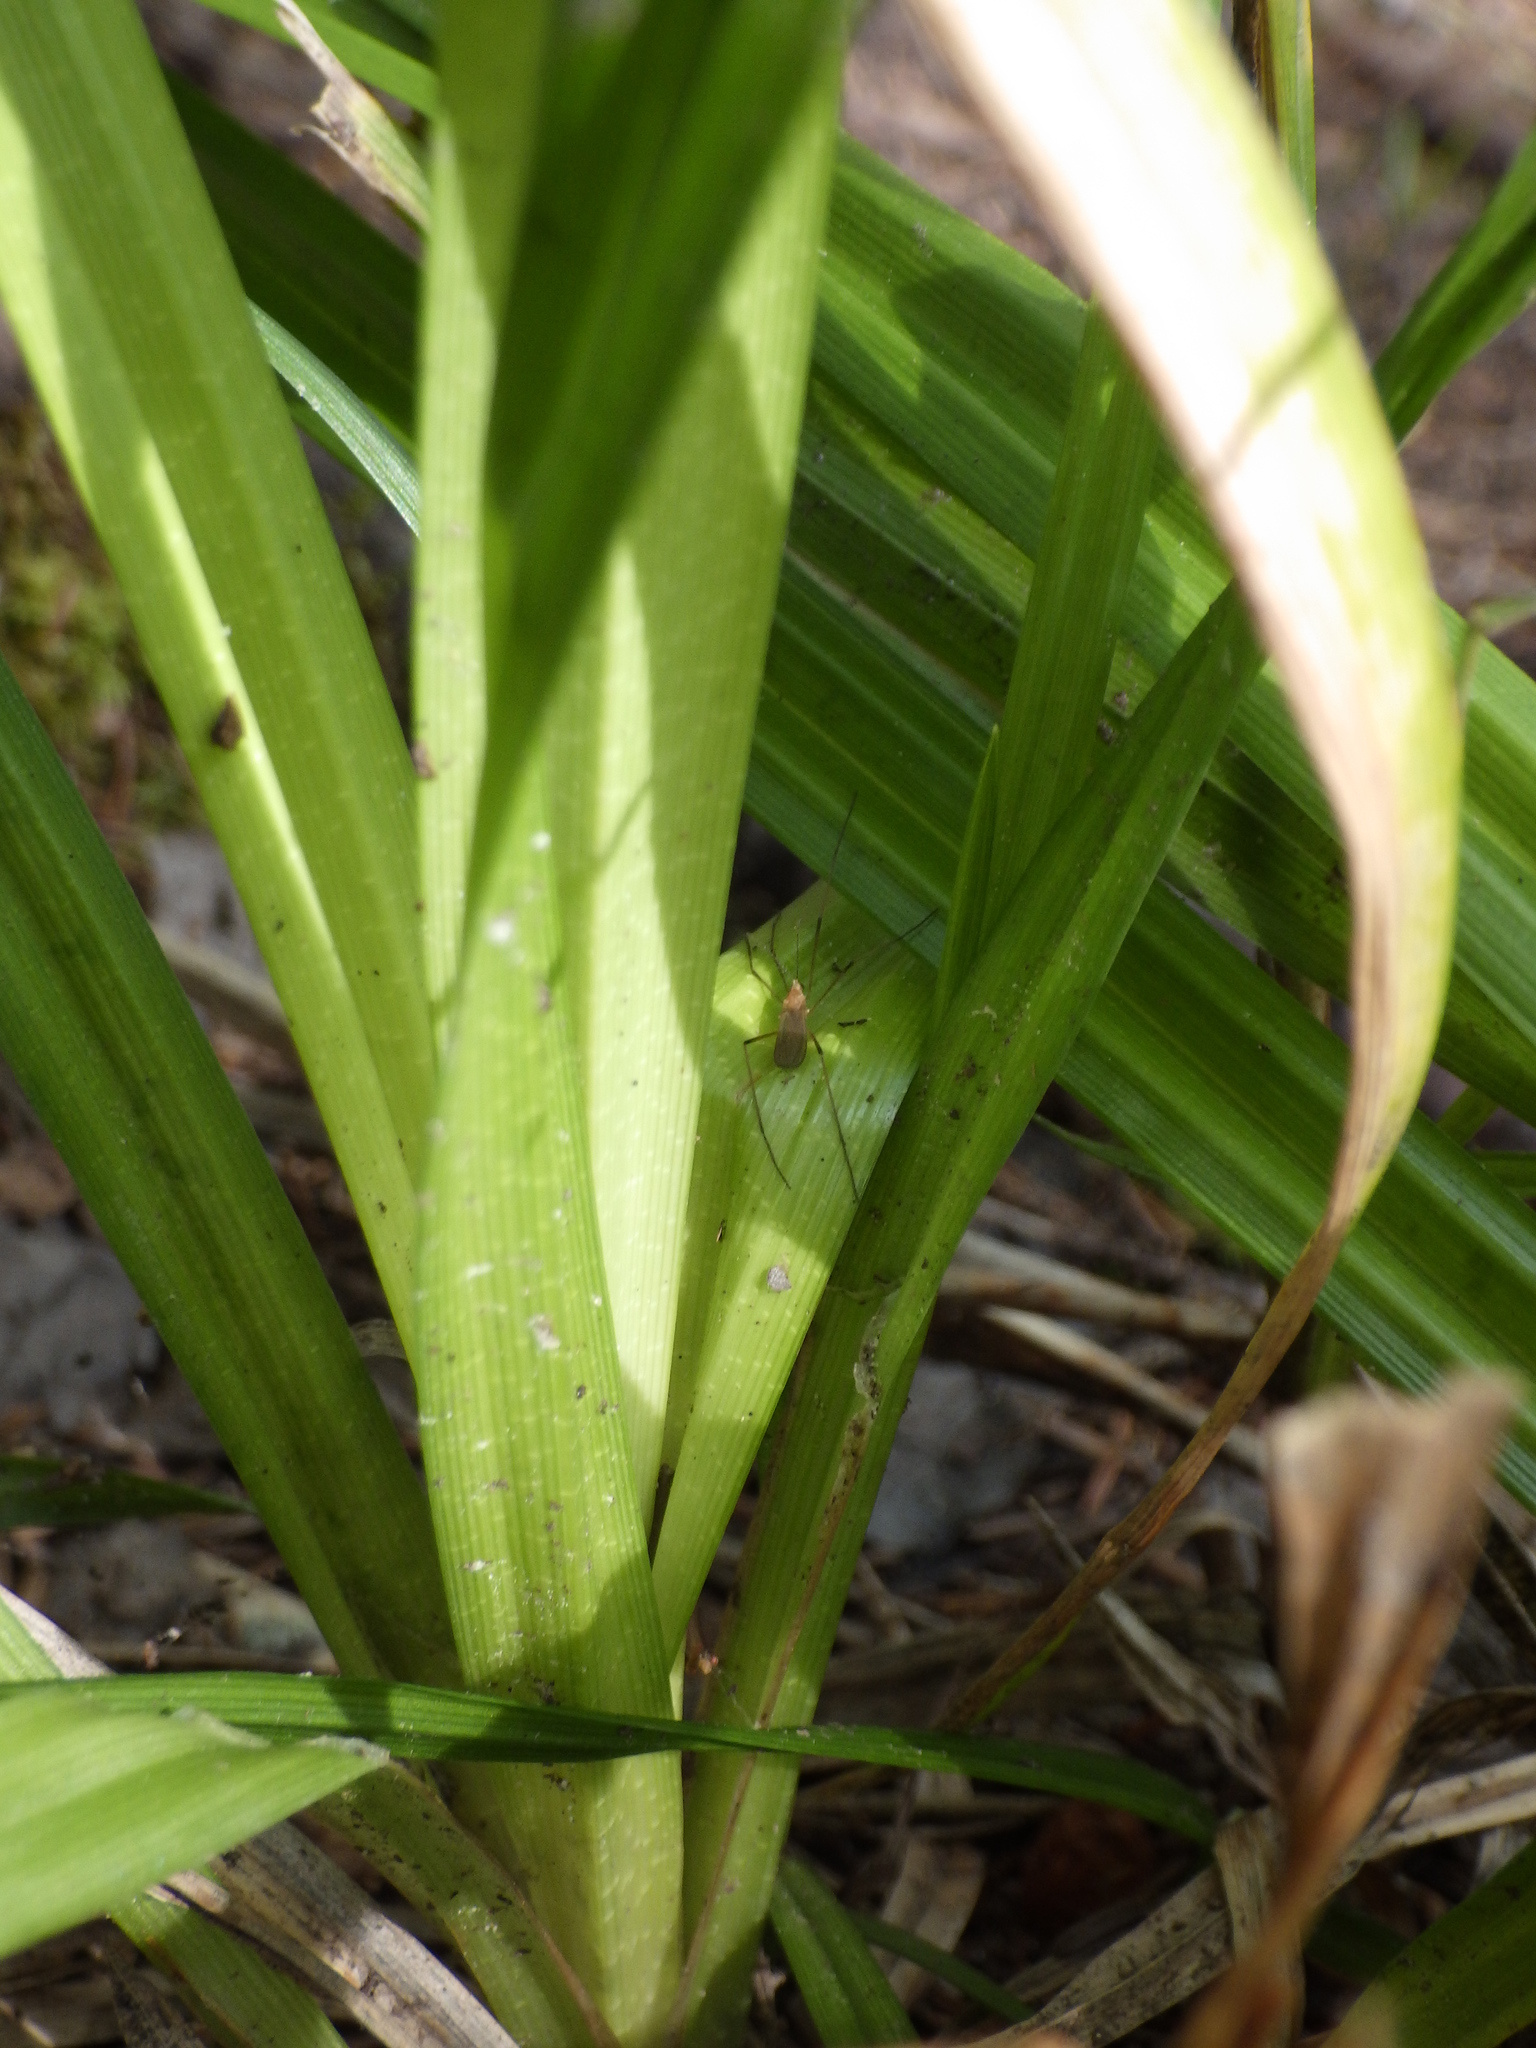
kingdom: Plantae
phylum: Tracheophyta
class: Liliopsida
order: Poales
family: Cyperaceae
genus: Carex
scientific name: Carex folliculata
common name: Northern long sedge
